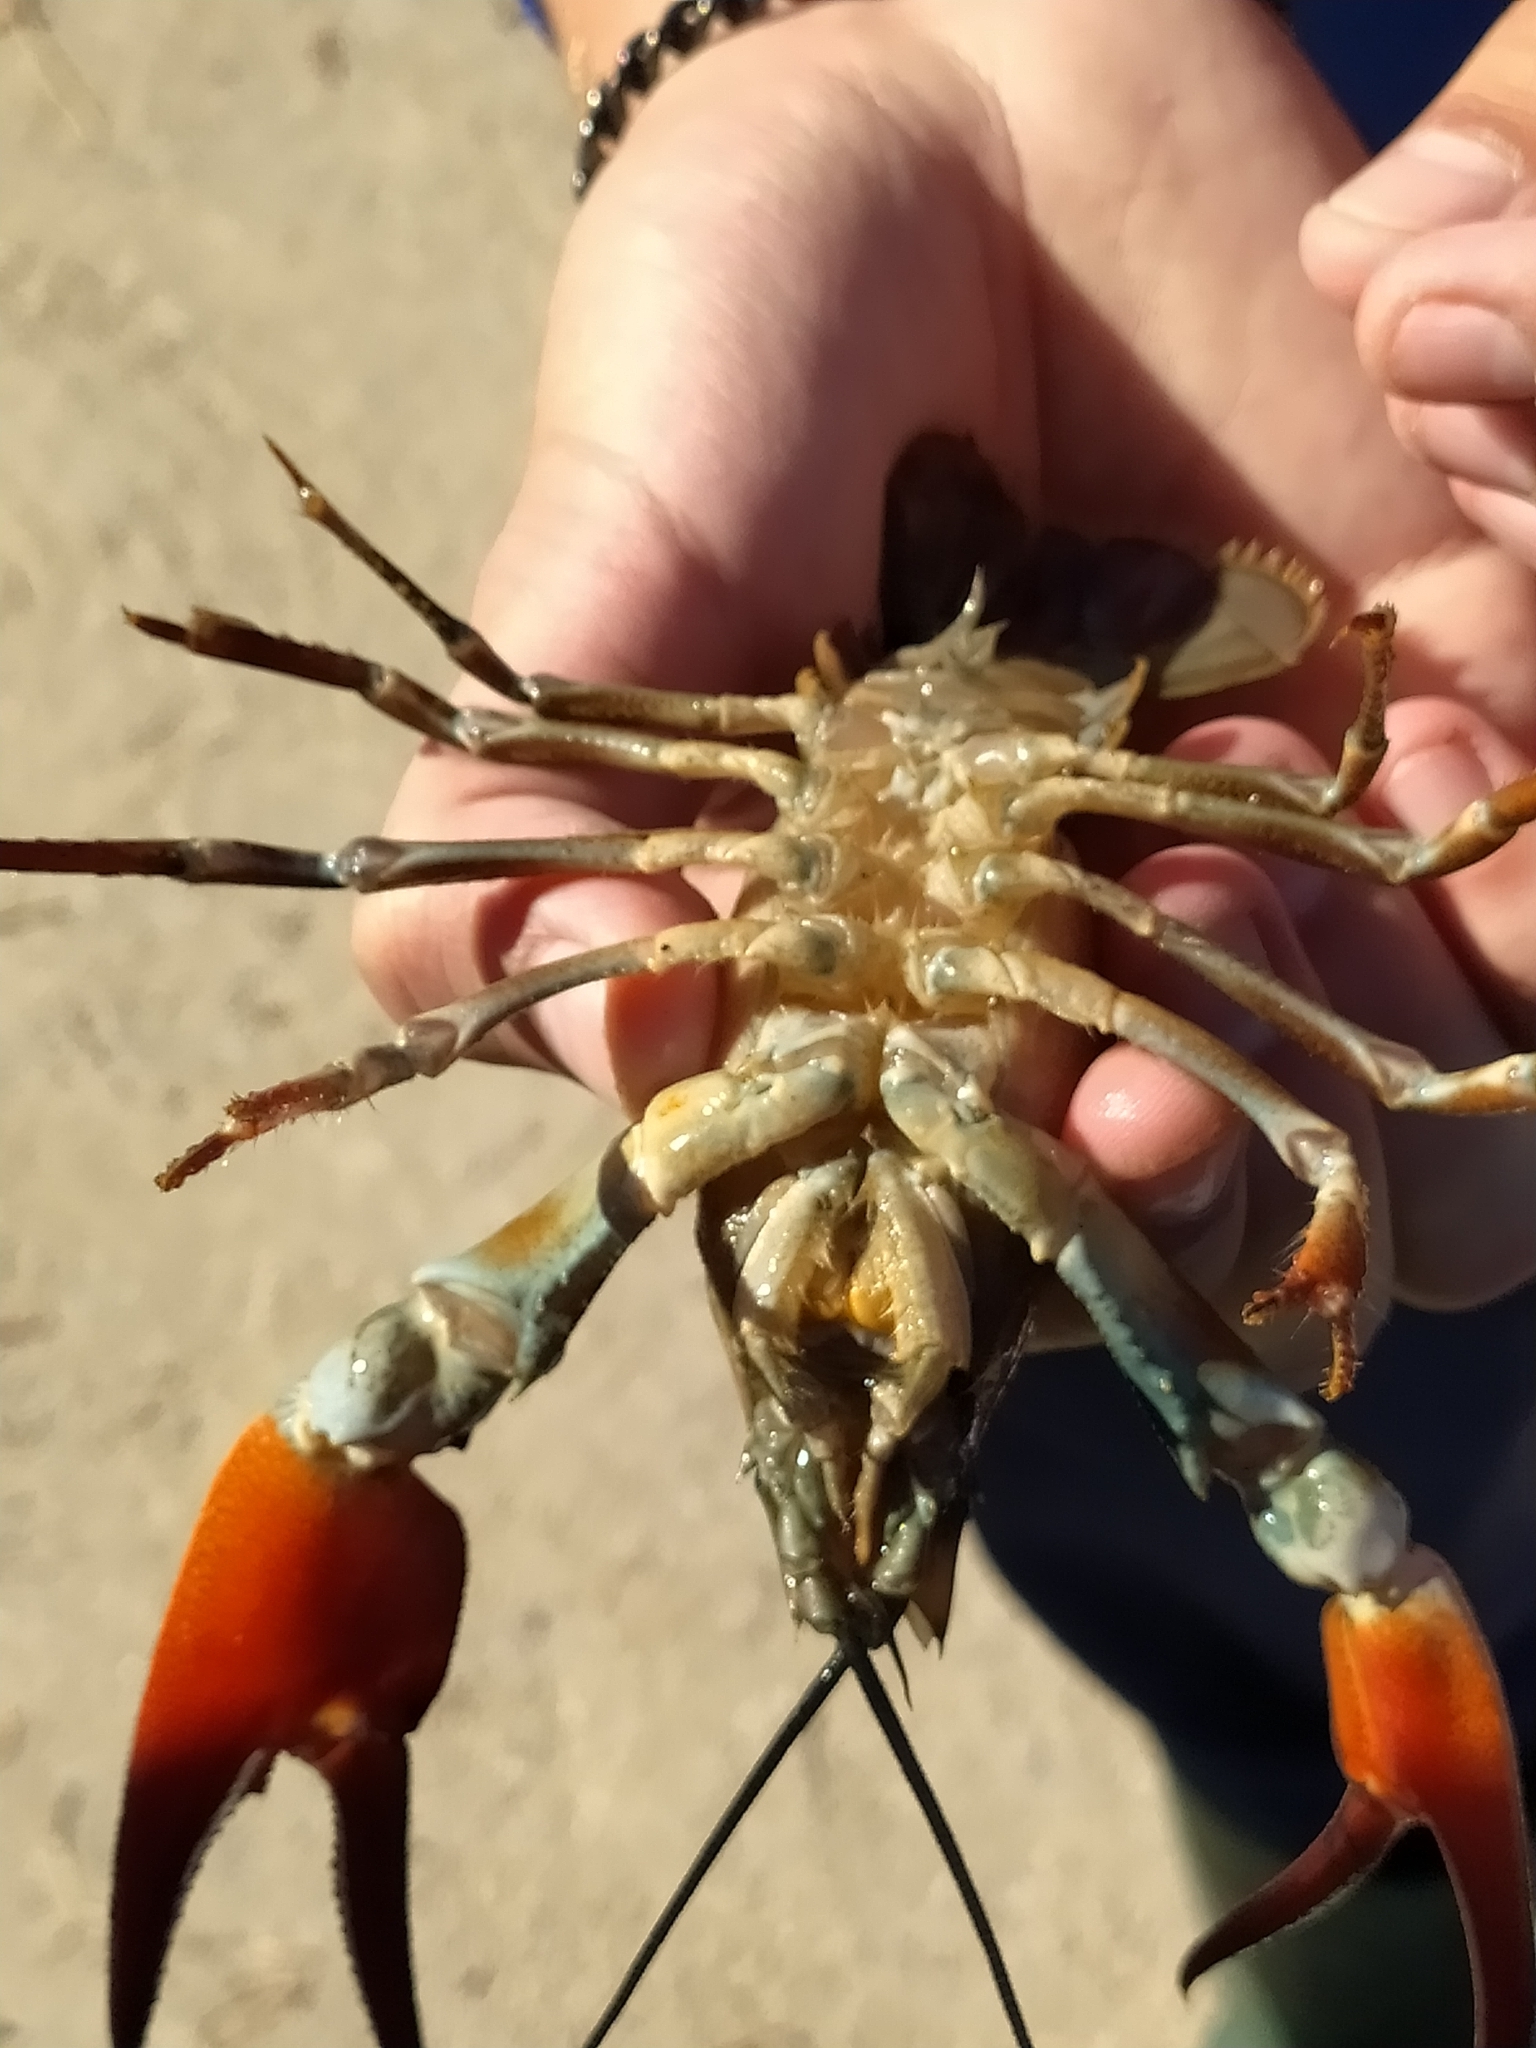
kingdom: Animalia
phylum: Arthropoda
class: Malacostraca
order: Decapoda
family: Astacidae
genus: Pacifastacus
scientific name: Pacifastacus leniusculus
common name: Signal crayfish
